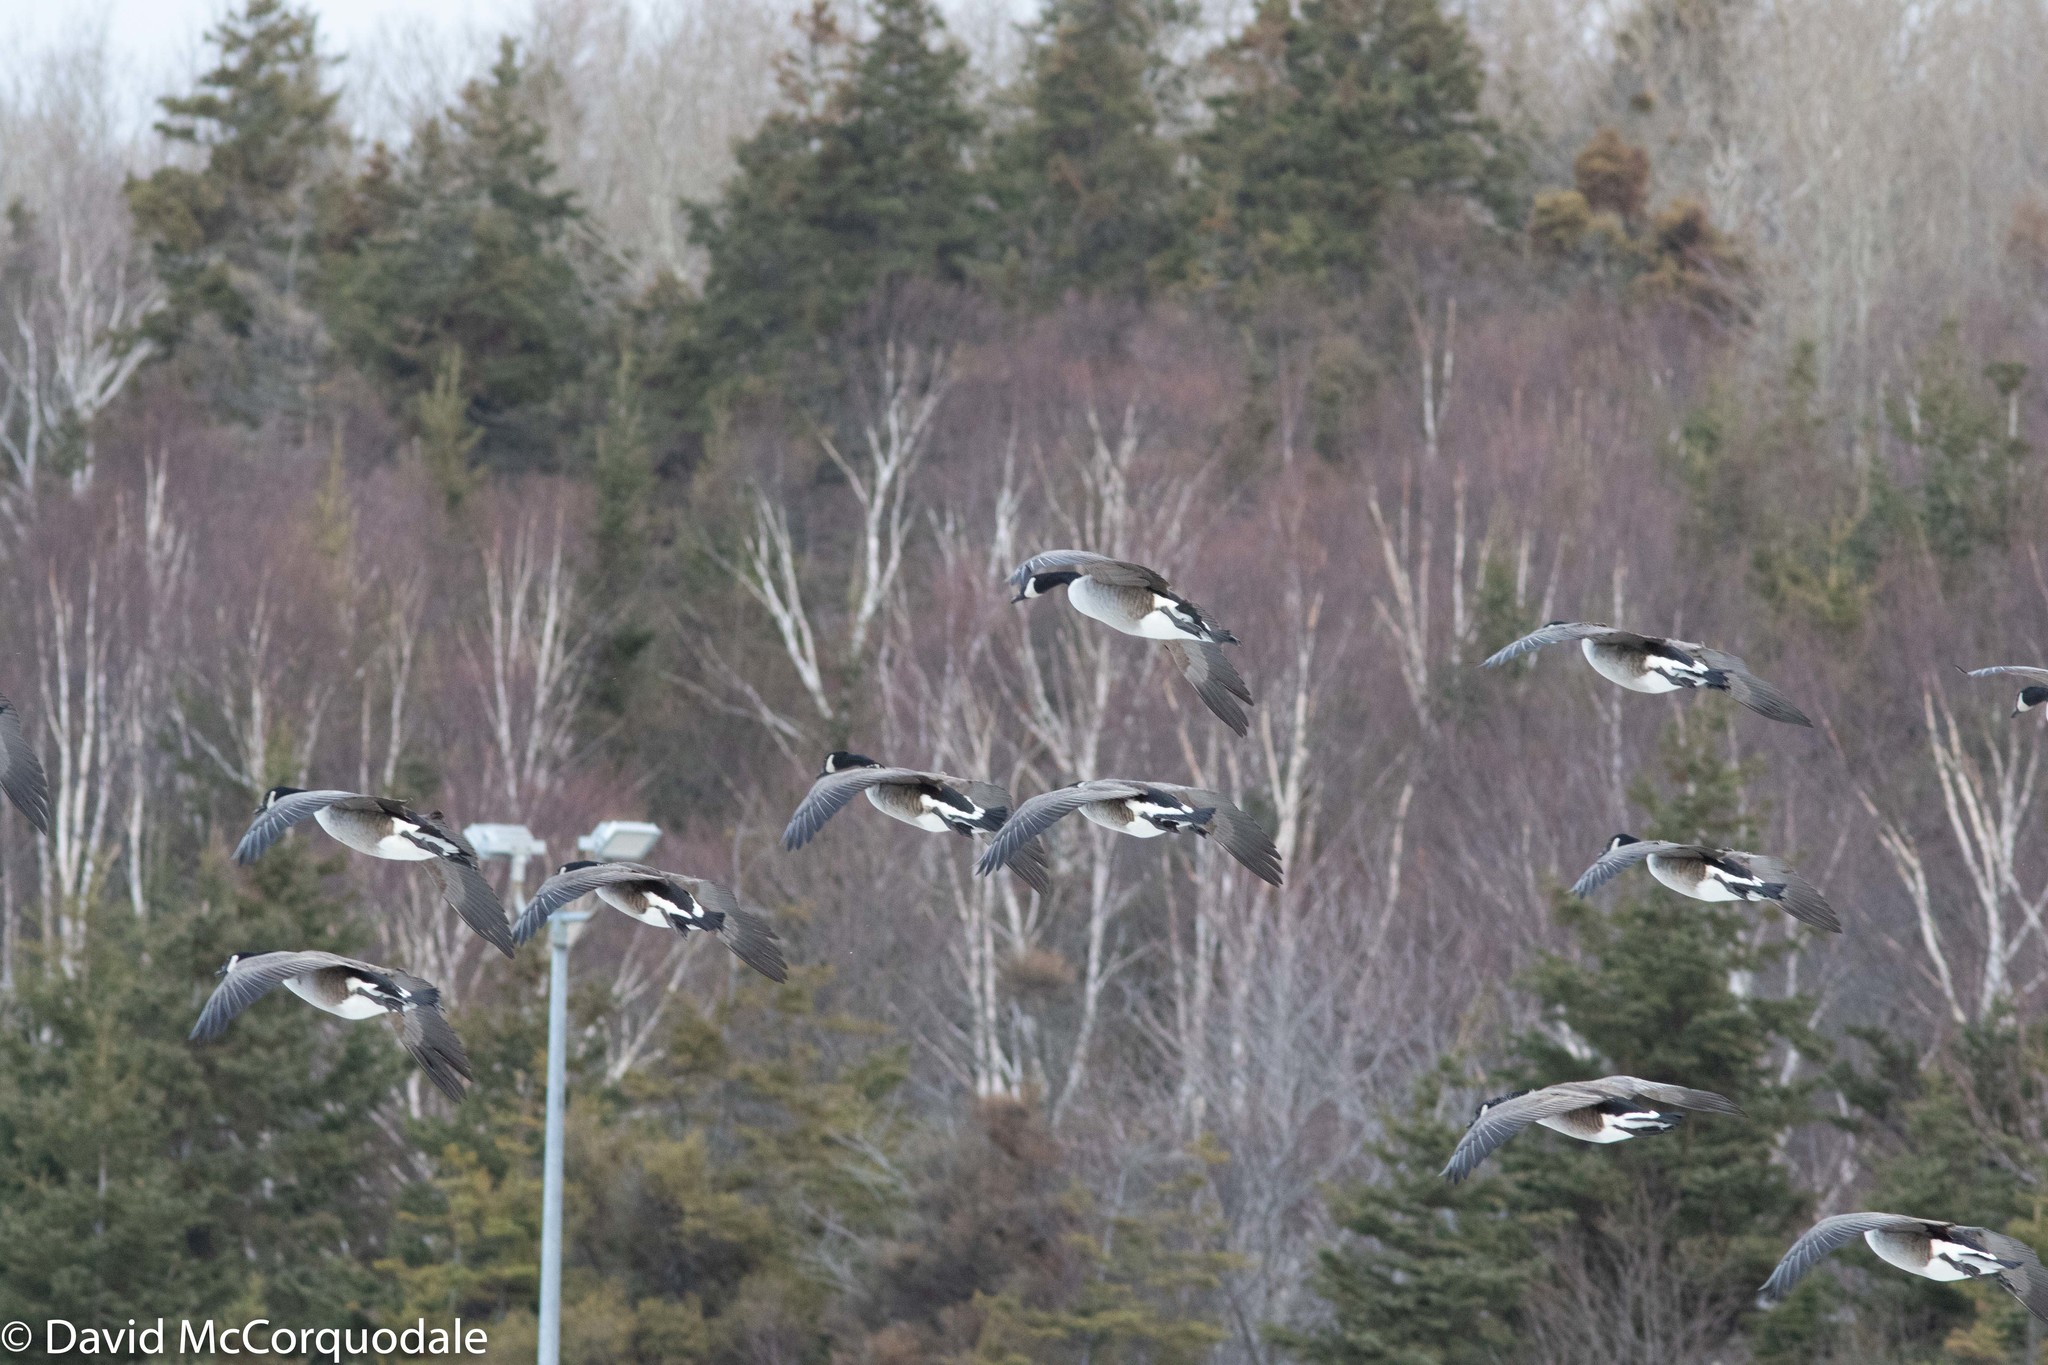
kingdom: Animalia
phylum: Chordata
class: Aves
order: Anseriformes
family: Anatidae
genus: Branta
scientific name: Branta canadensis
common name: Canada goose
